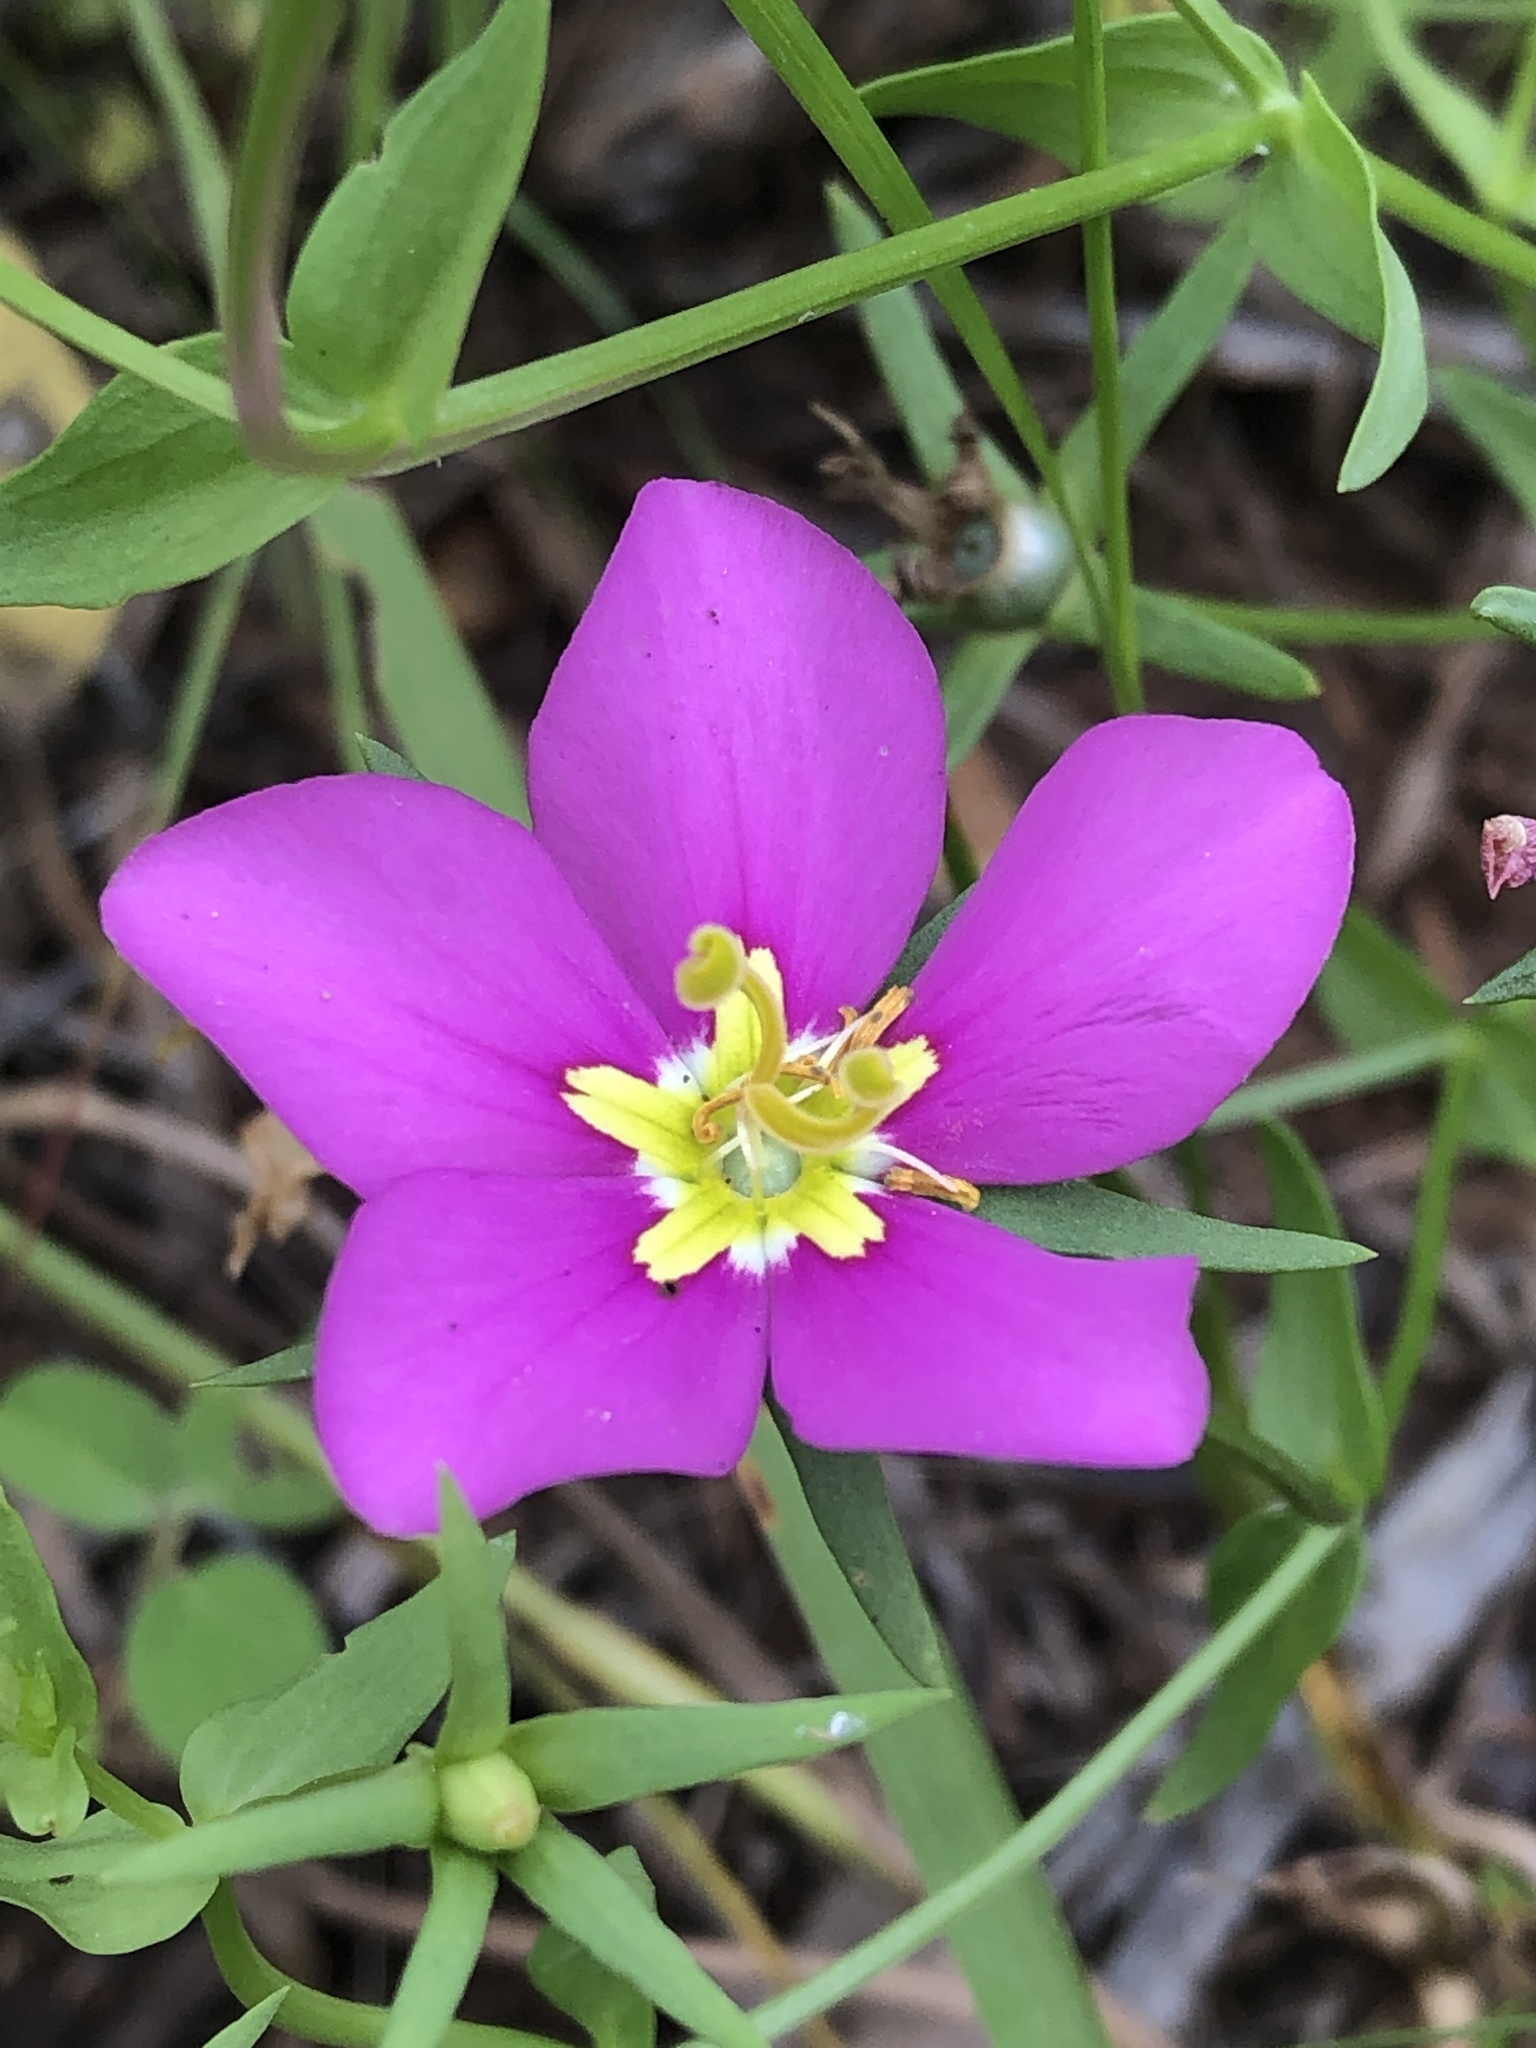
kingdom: Plantae
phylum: Tracheophyta
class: Magnoliopsida
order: Gentianales
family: Gentianaceae
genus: Sabatia
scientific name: Sabatia campestris
